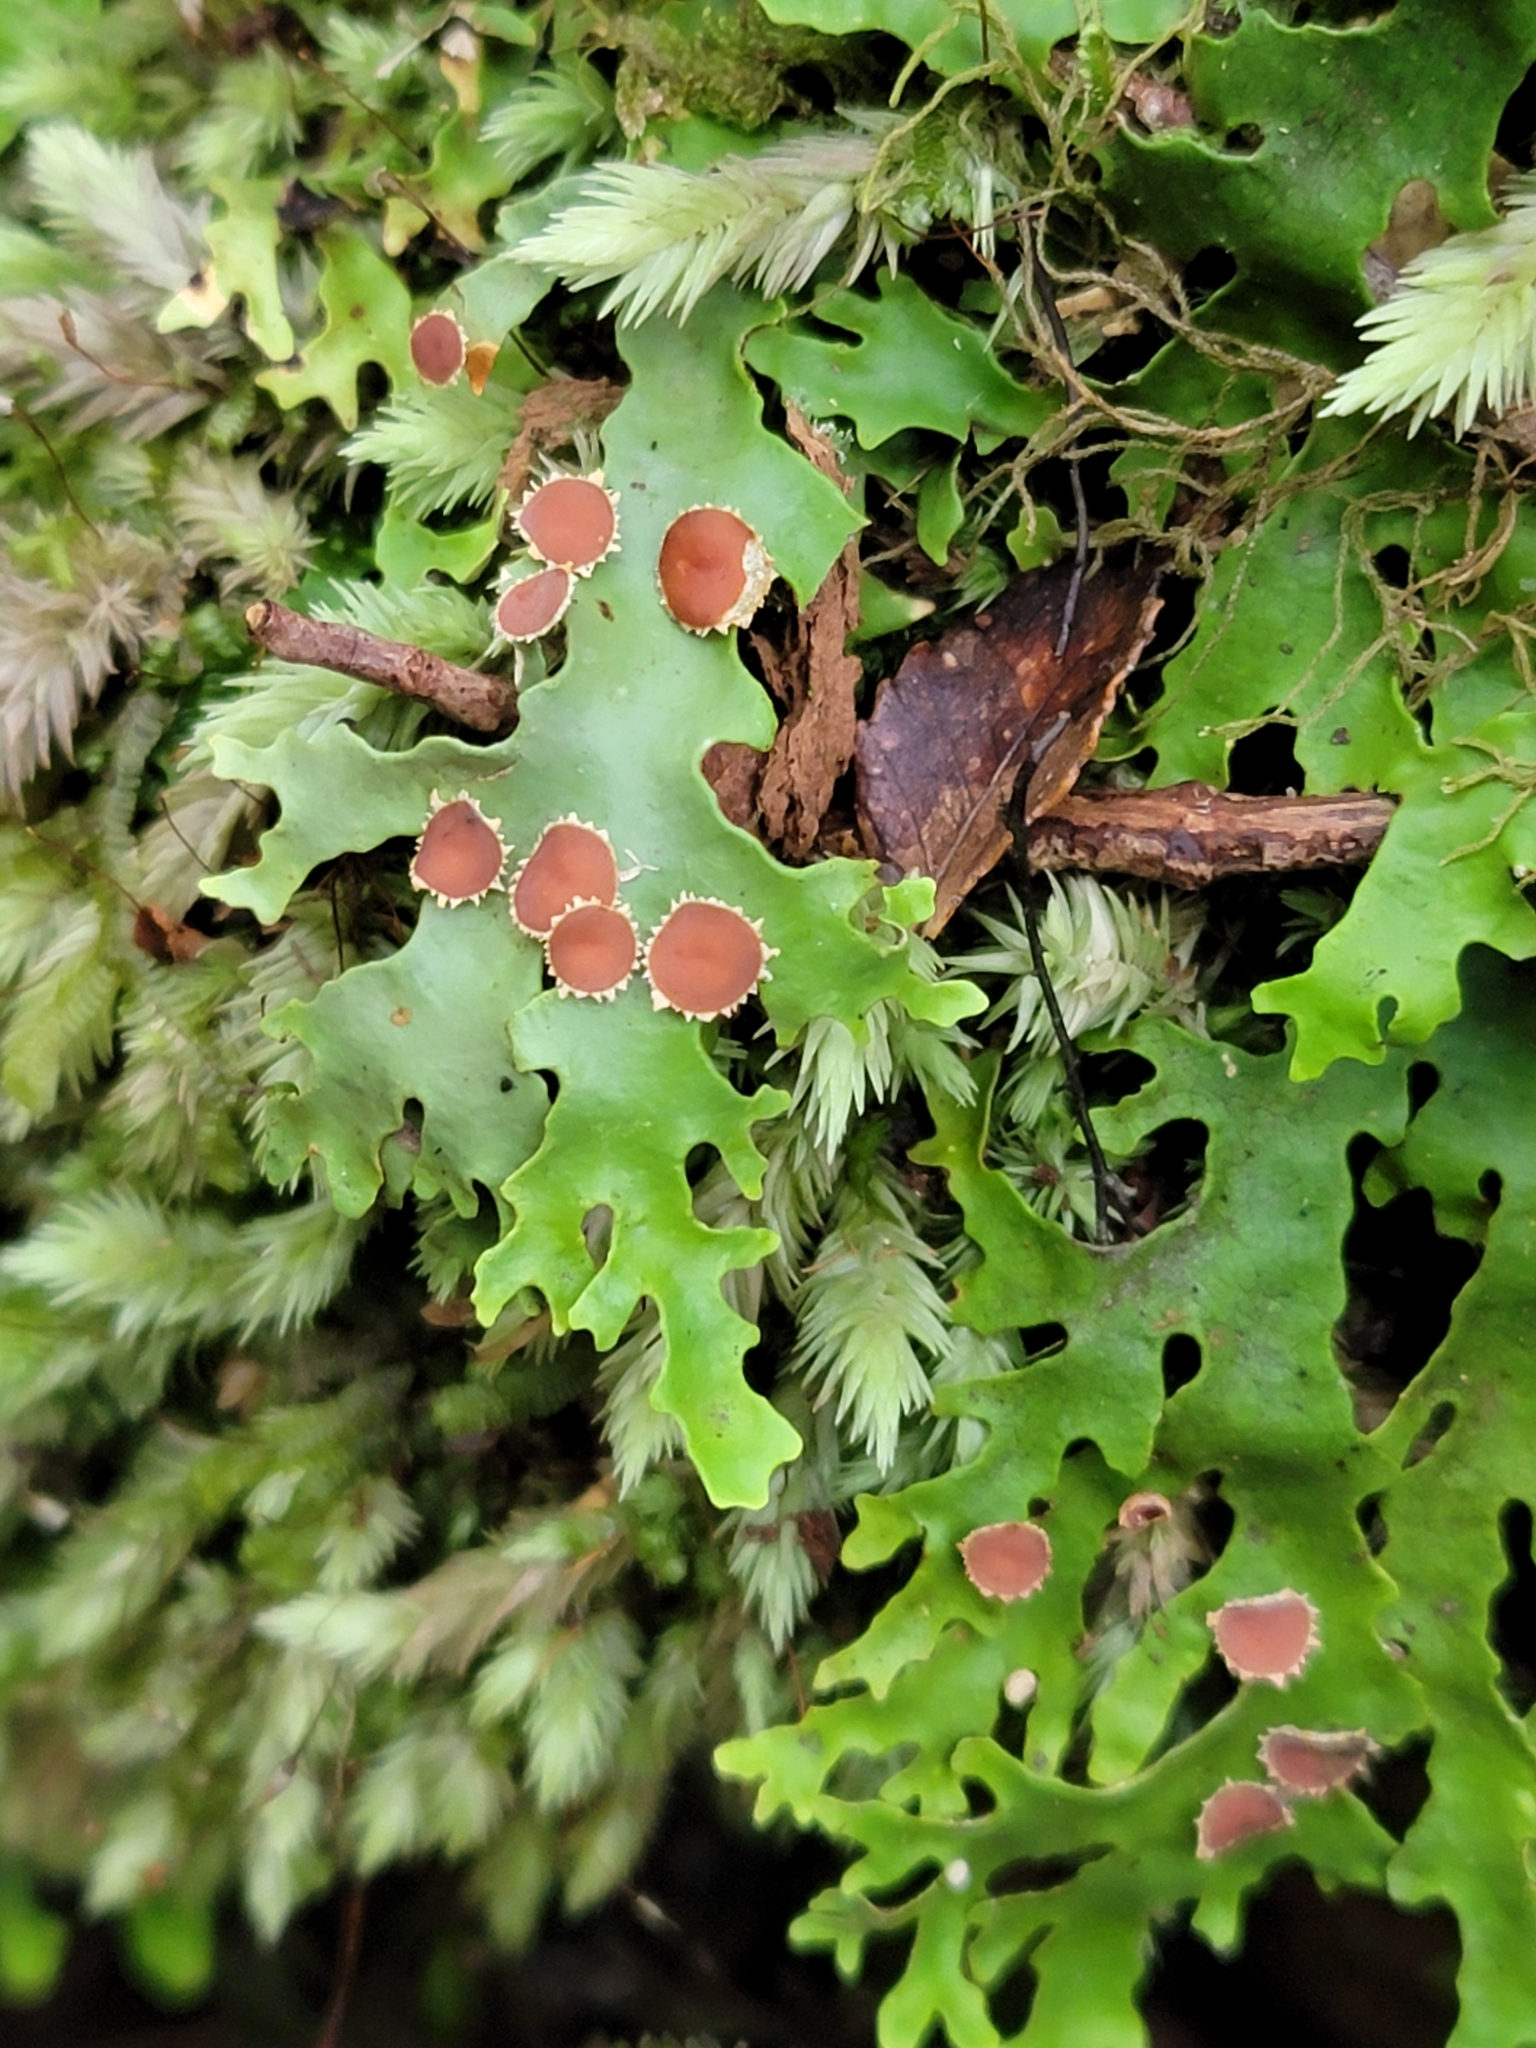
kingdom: Fungi
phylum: Ascomycota
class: Lecanoromycetes
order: Peltigerales
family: Lobariaceae
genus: Pseudocyphellaria
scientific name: Pseudocyphellaria homeophylla
